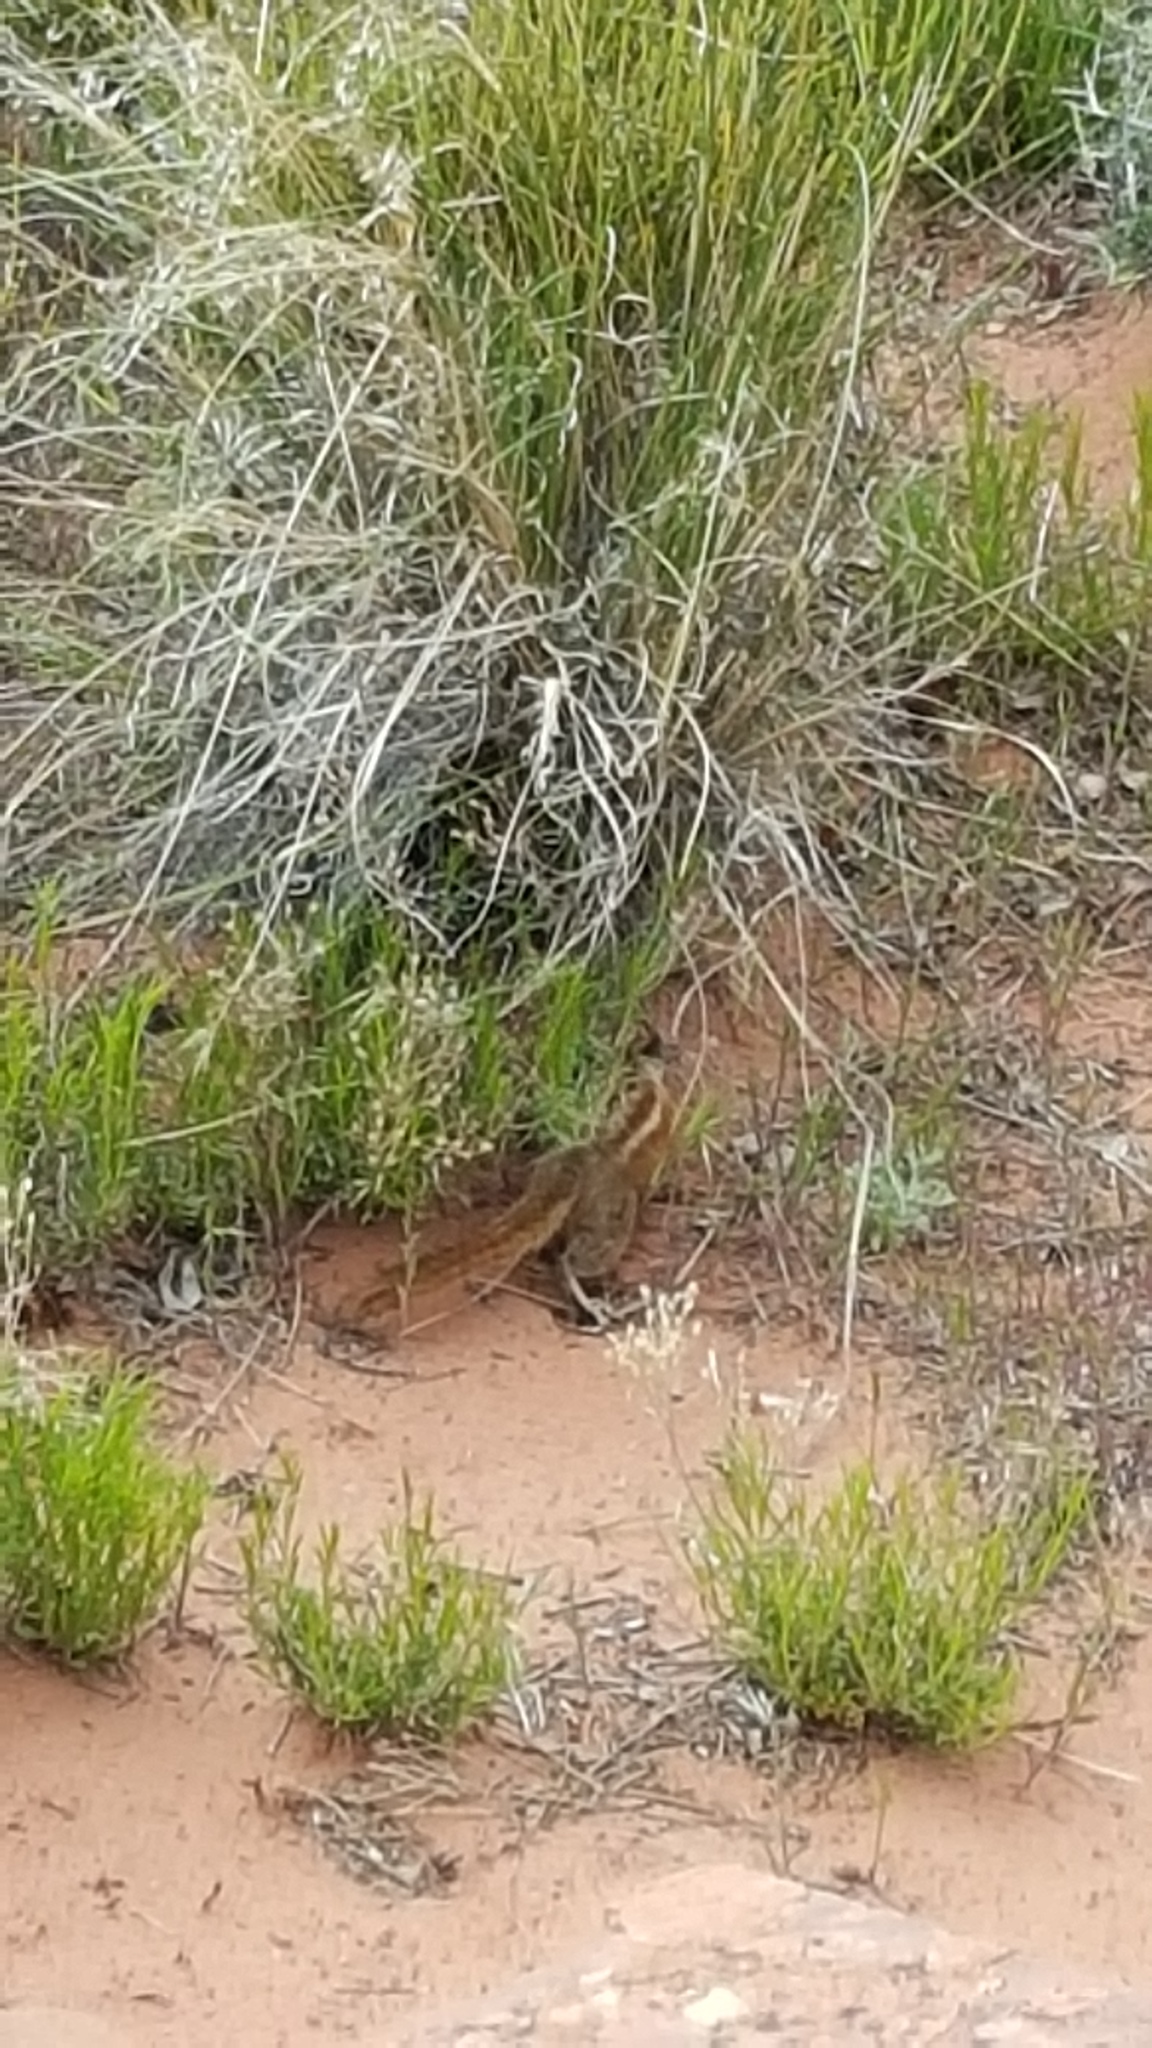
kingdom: Animalia
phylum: Chordata
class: Mammalia
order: Rodentia
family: Sciuridae
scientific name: Sciuridae
